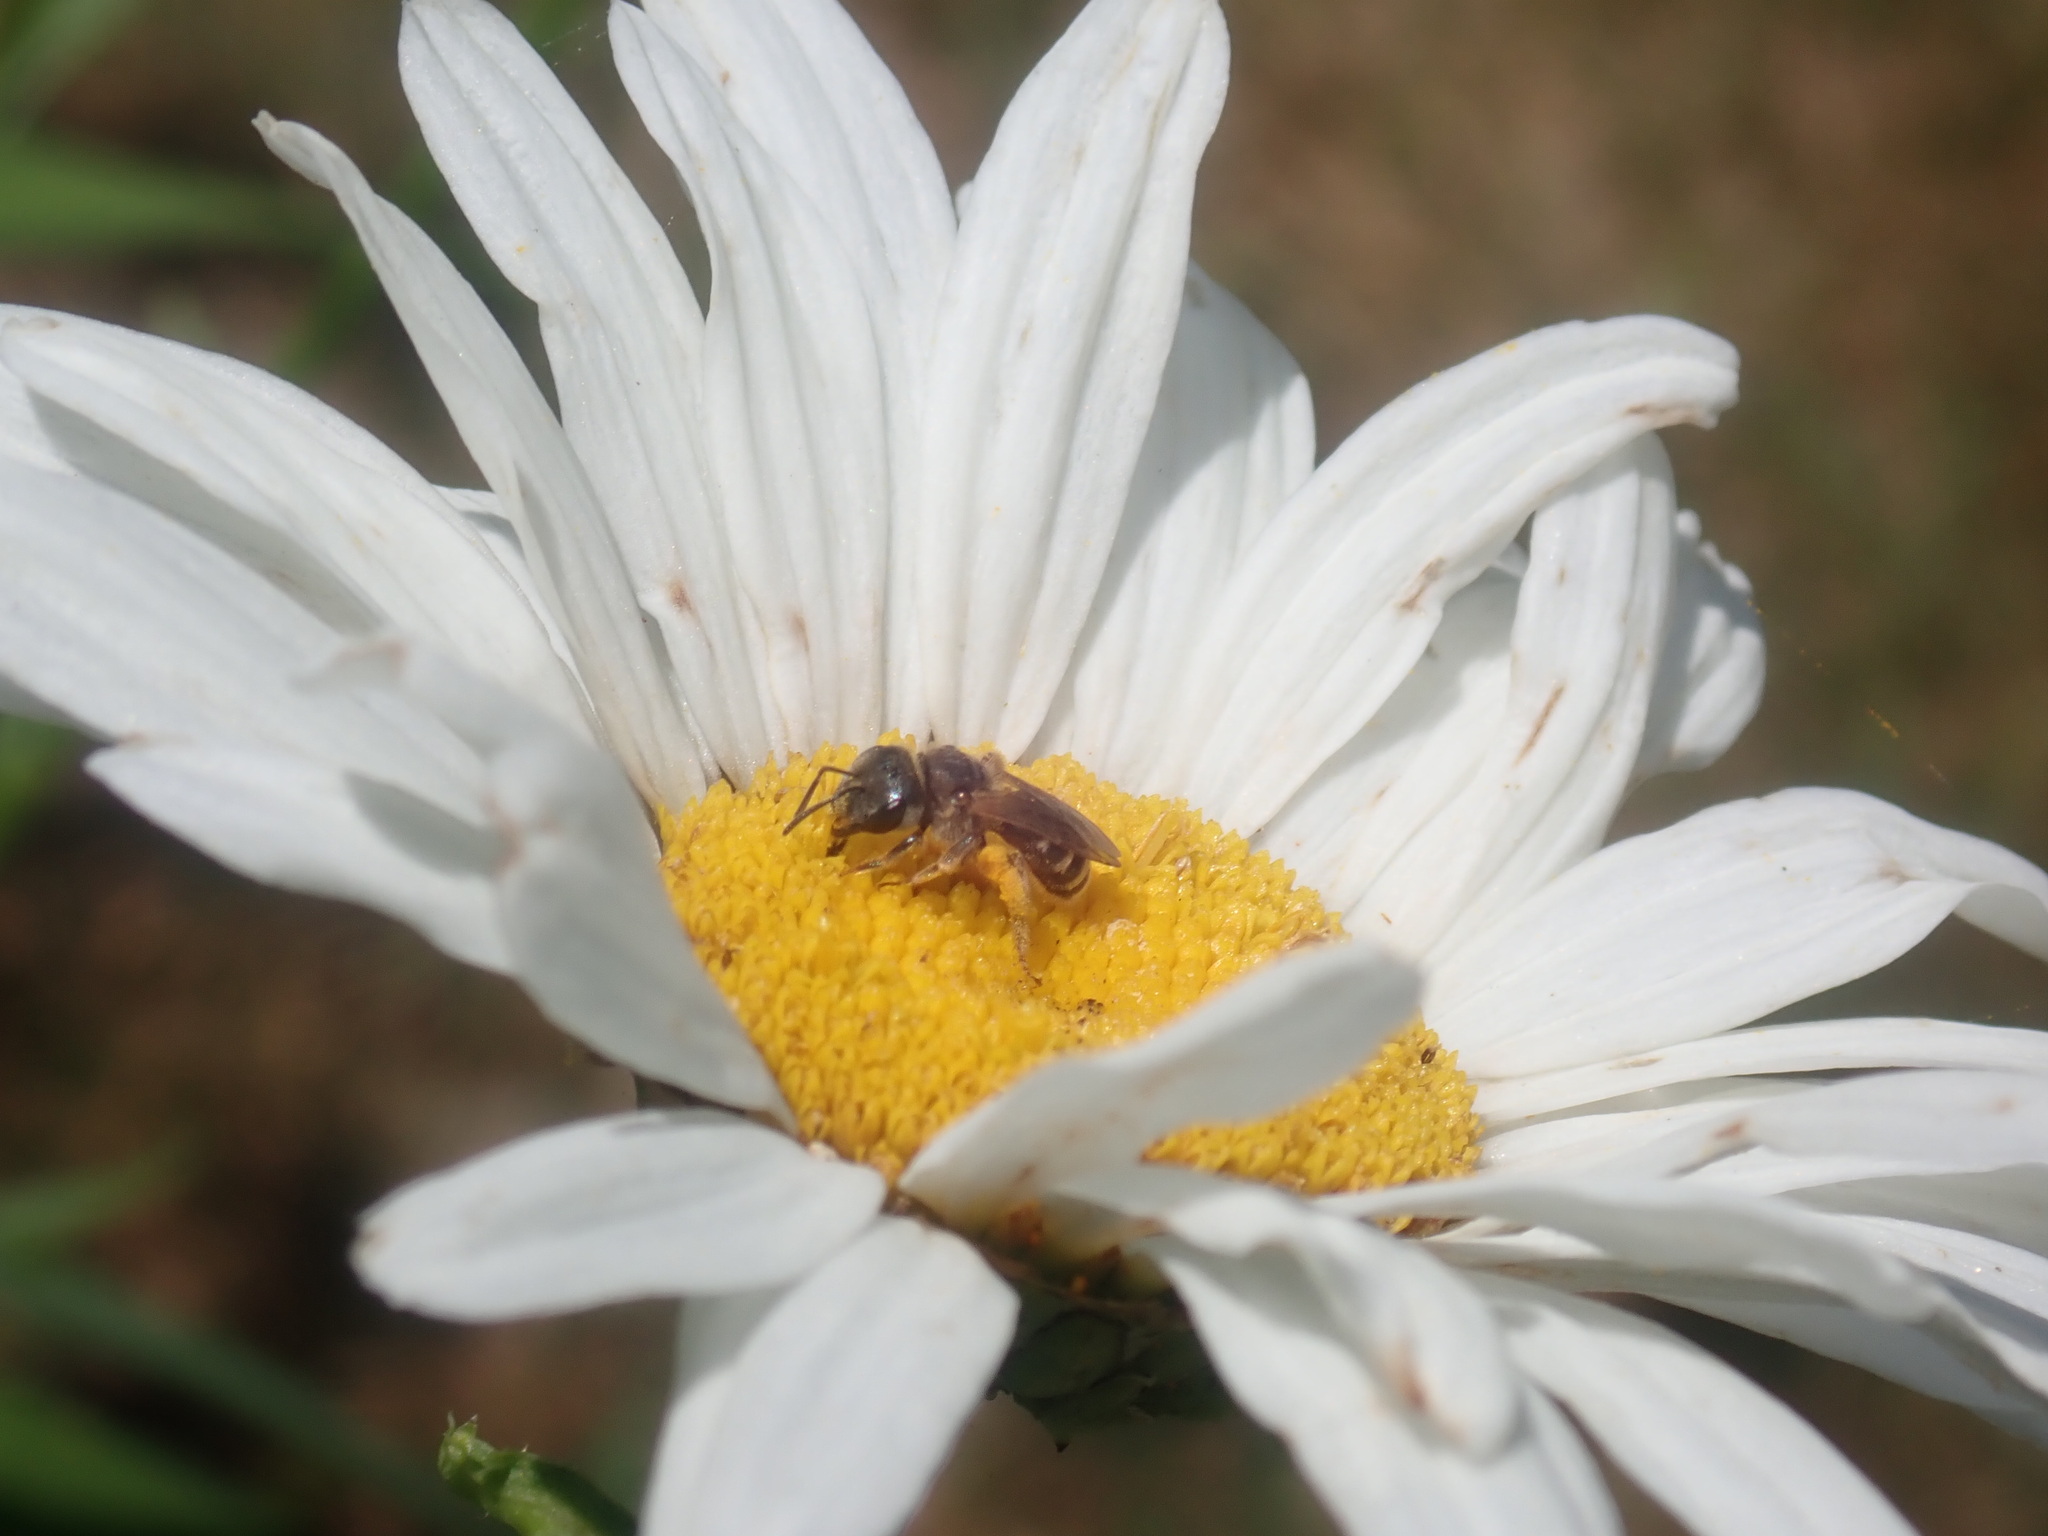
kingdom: Animalia
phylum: Arthropoda
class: Insecta
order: Hymenoptera
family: Halictidae
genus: Halictus
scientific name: Halictus ligatus
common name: Ligated furrow bee
